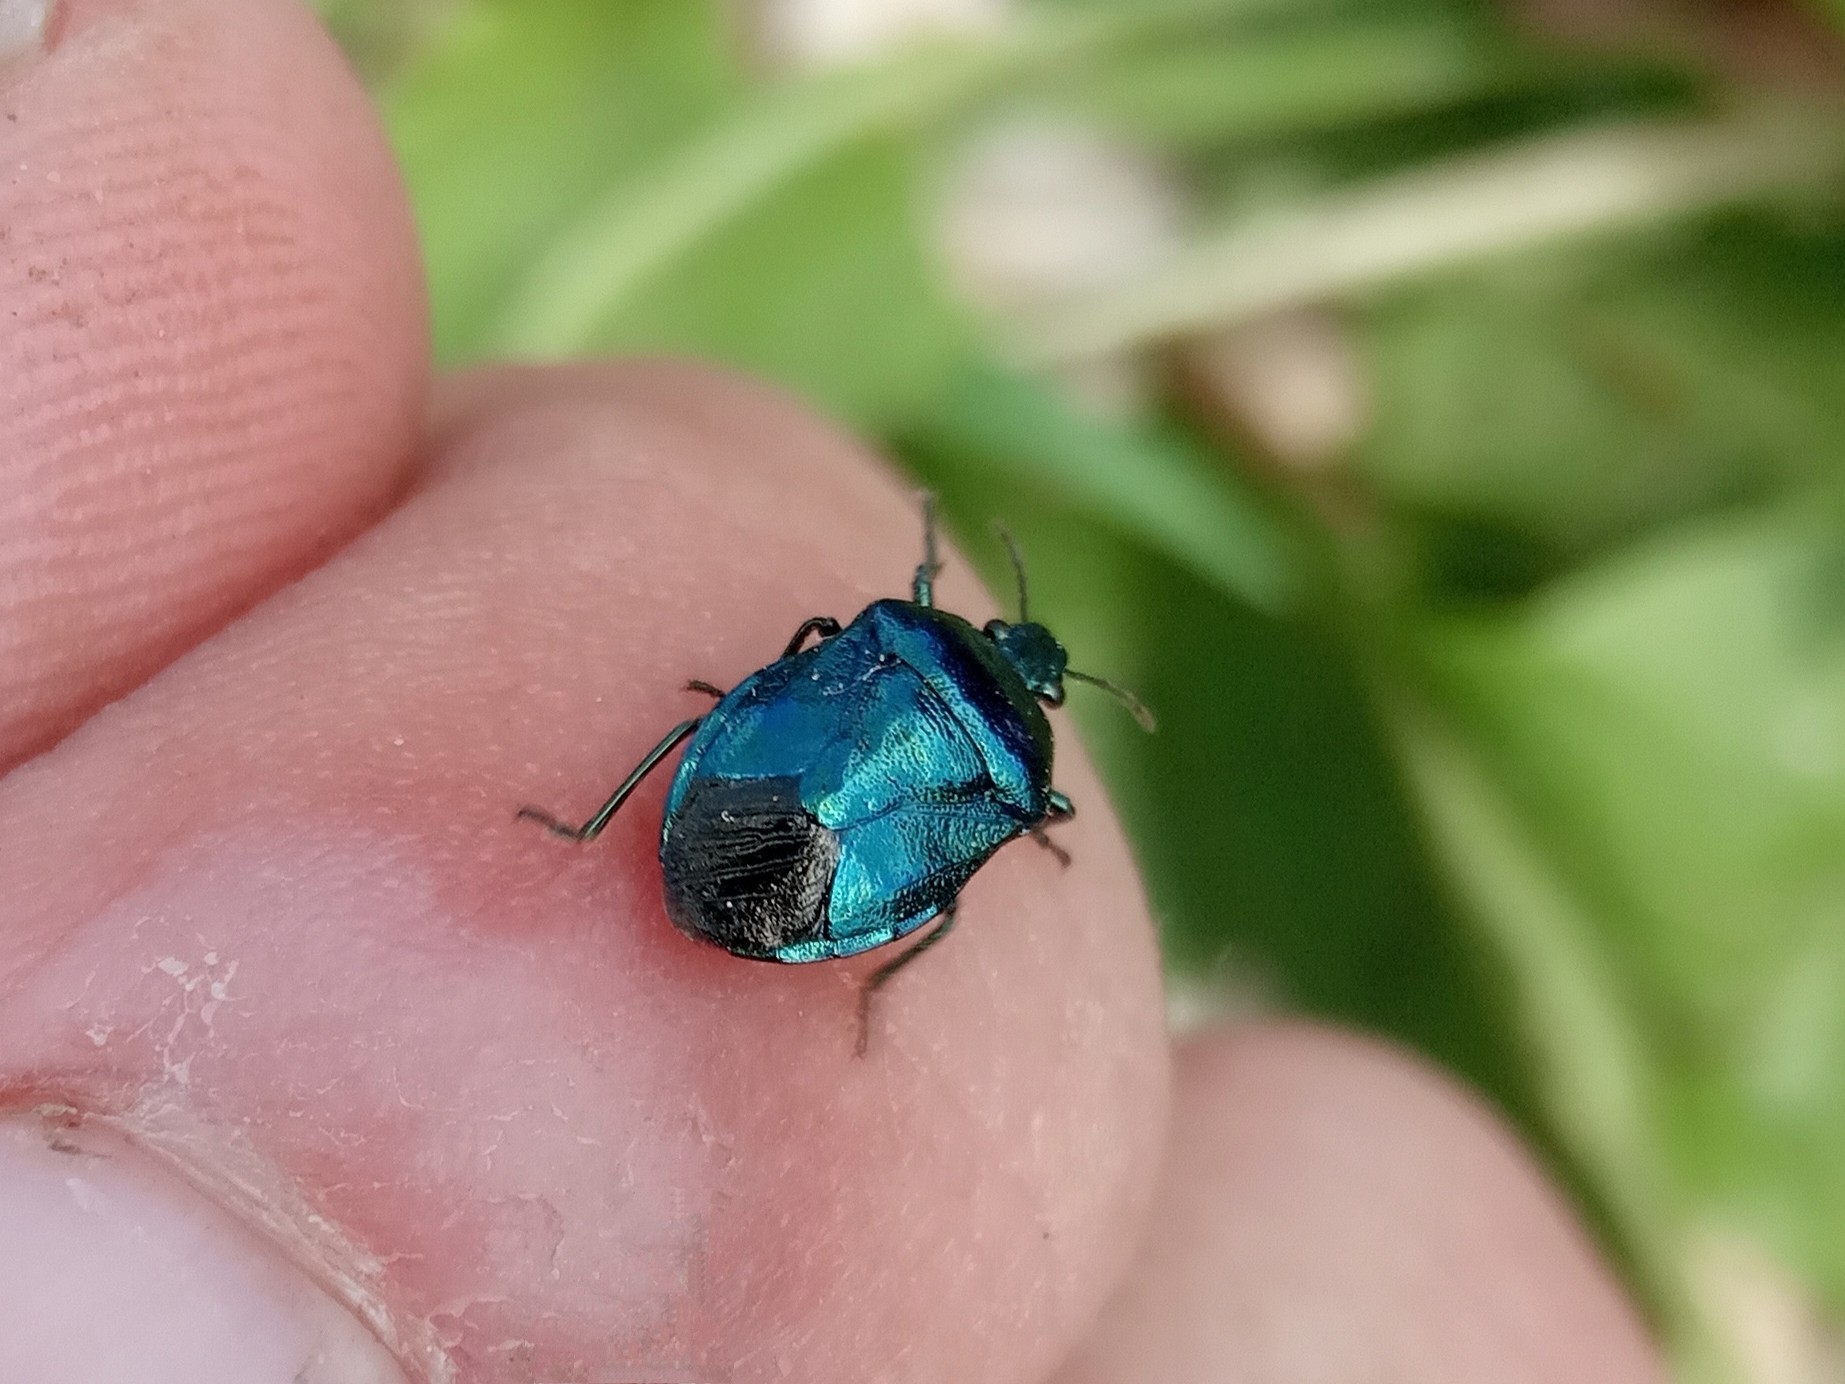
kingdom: Animalia
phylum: Arthropoda
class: Insecta
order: Hemiptera
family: Pentatomidae
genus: Zicrona
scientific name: Zicrona caerulea
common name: Blue shieldbug
